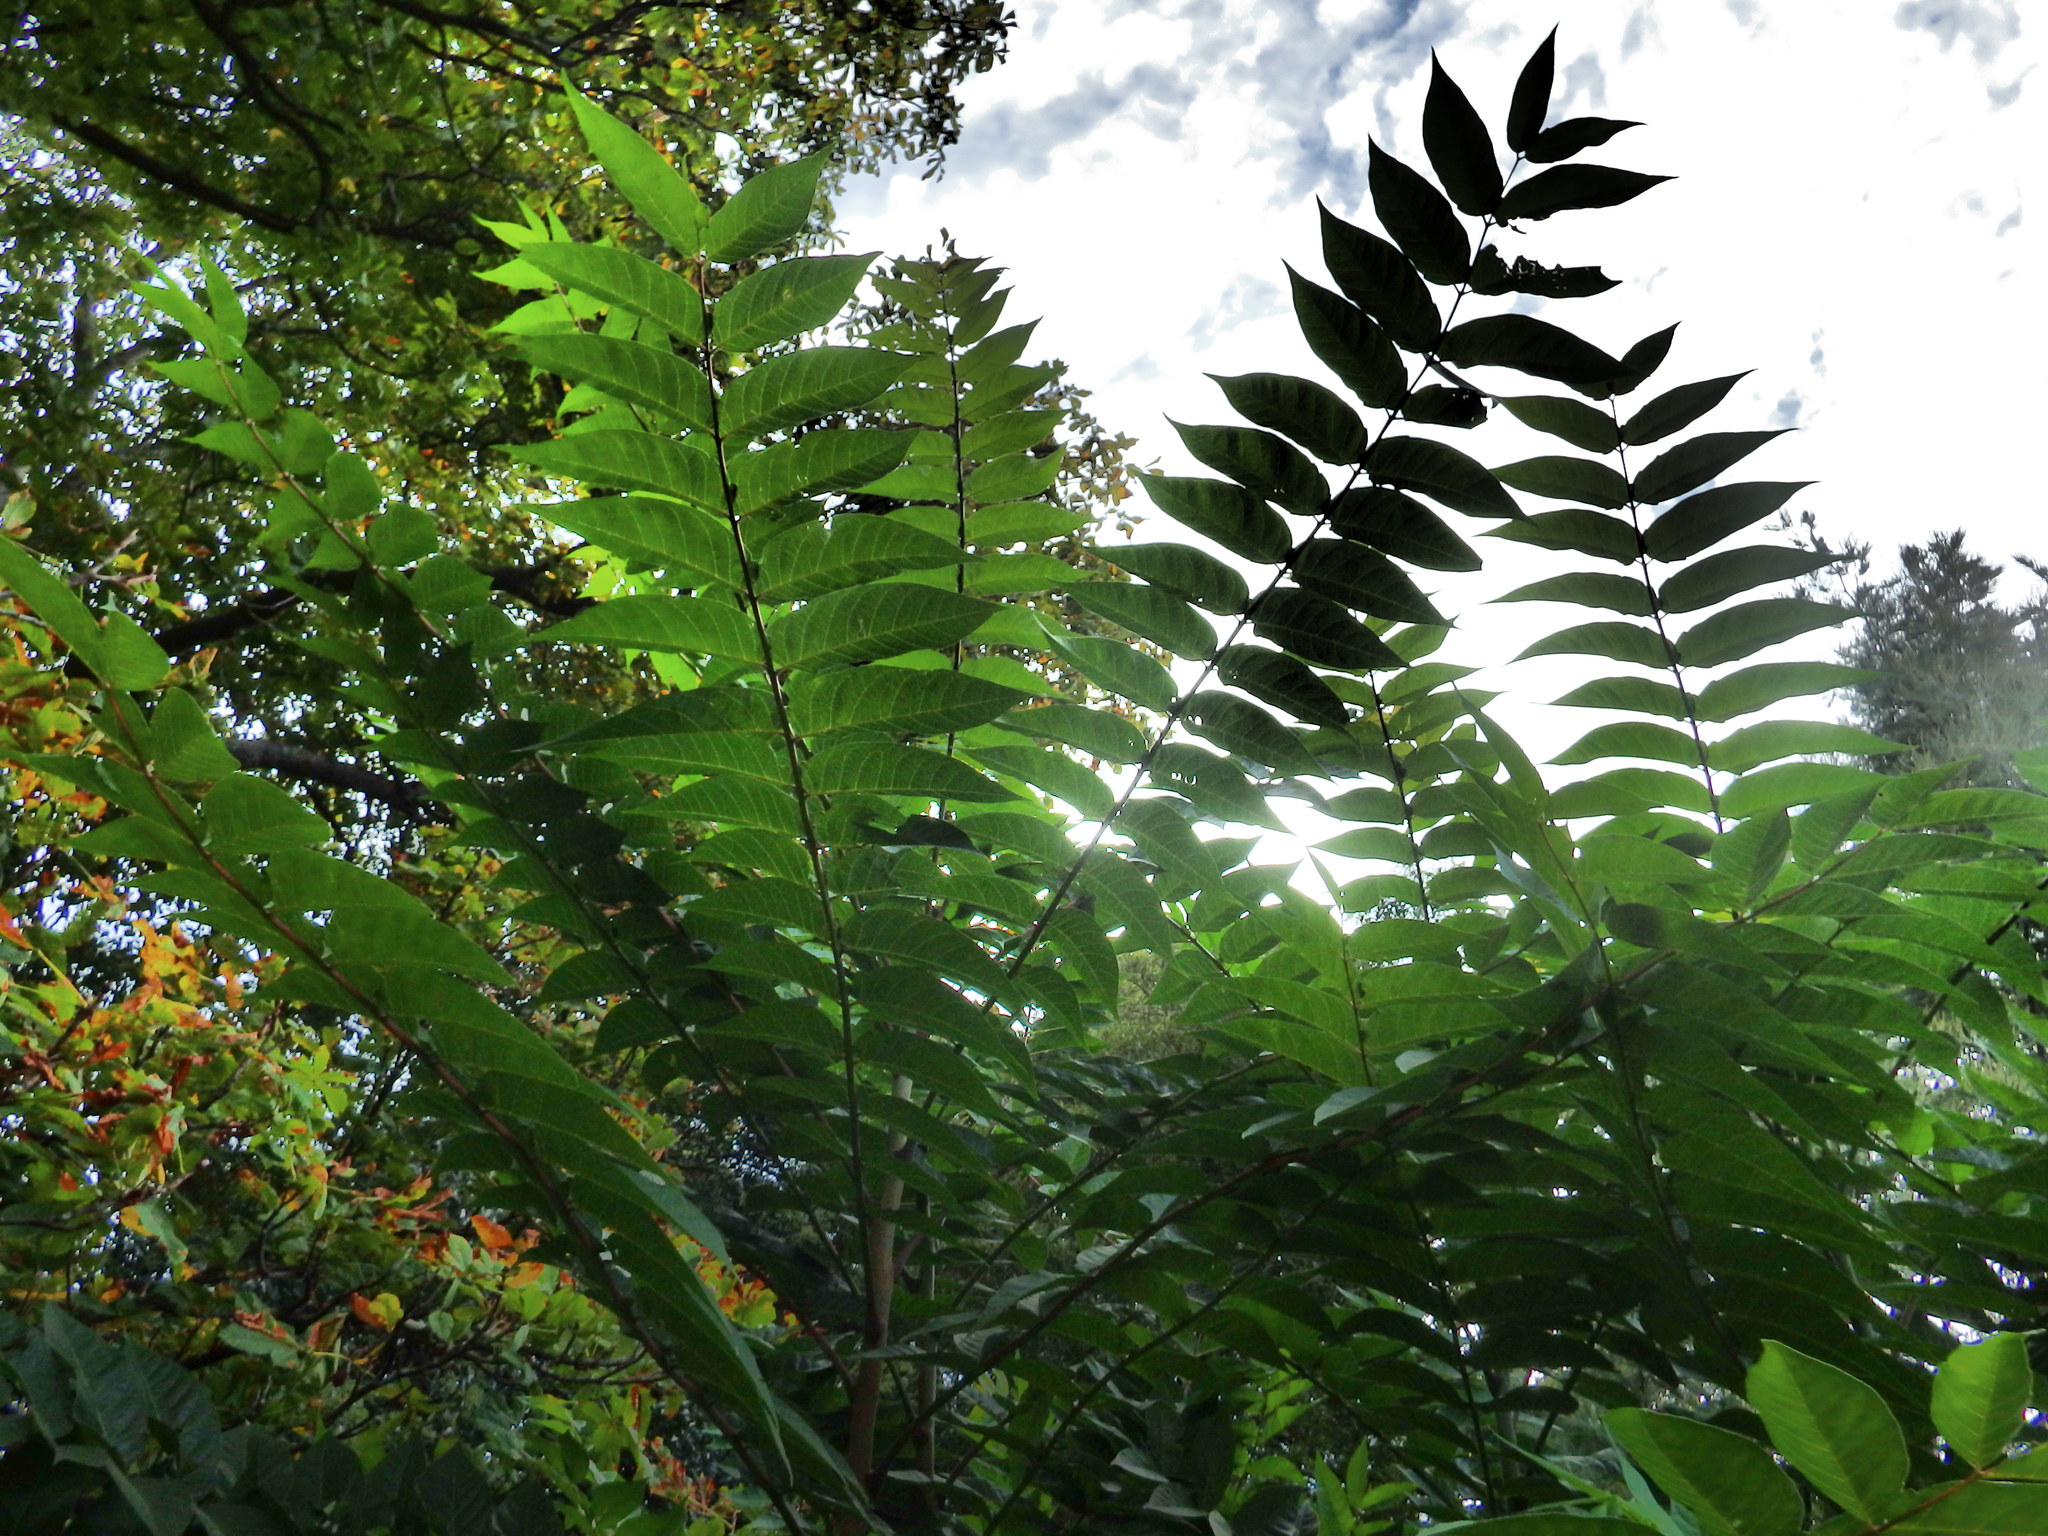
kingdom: Plantae
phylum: Tracheophyta
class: Magnoliopsida
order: Sapindales
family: Simaroubaceae
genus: Ailanthus
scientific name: Ailanthus altissima
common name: Tree-of-heaven
